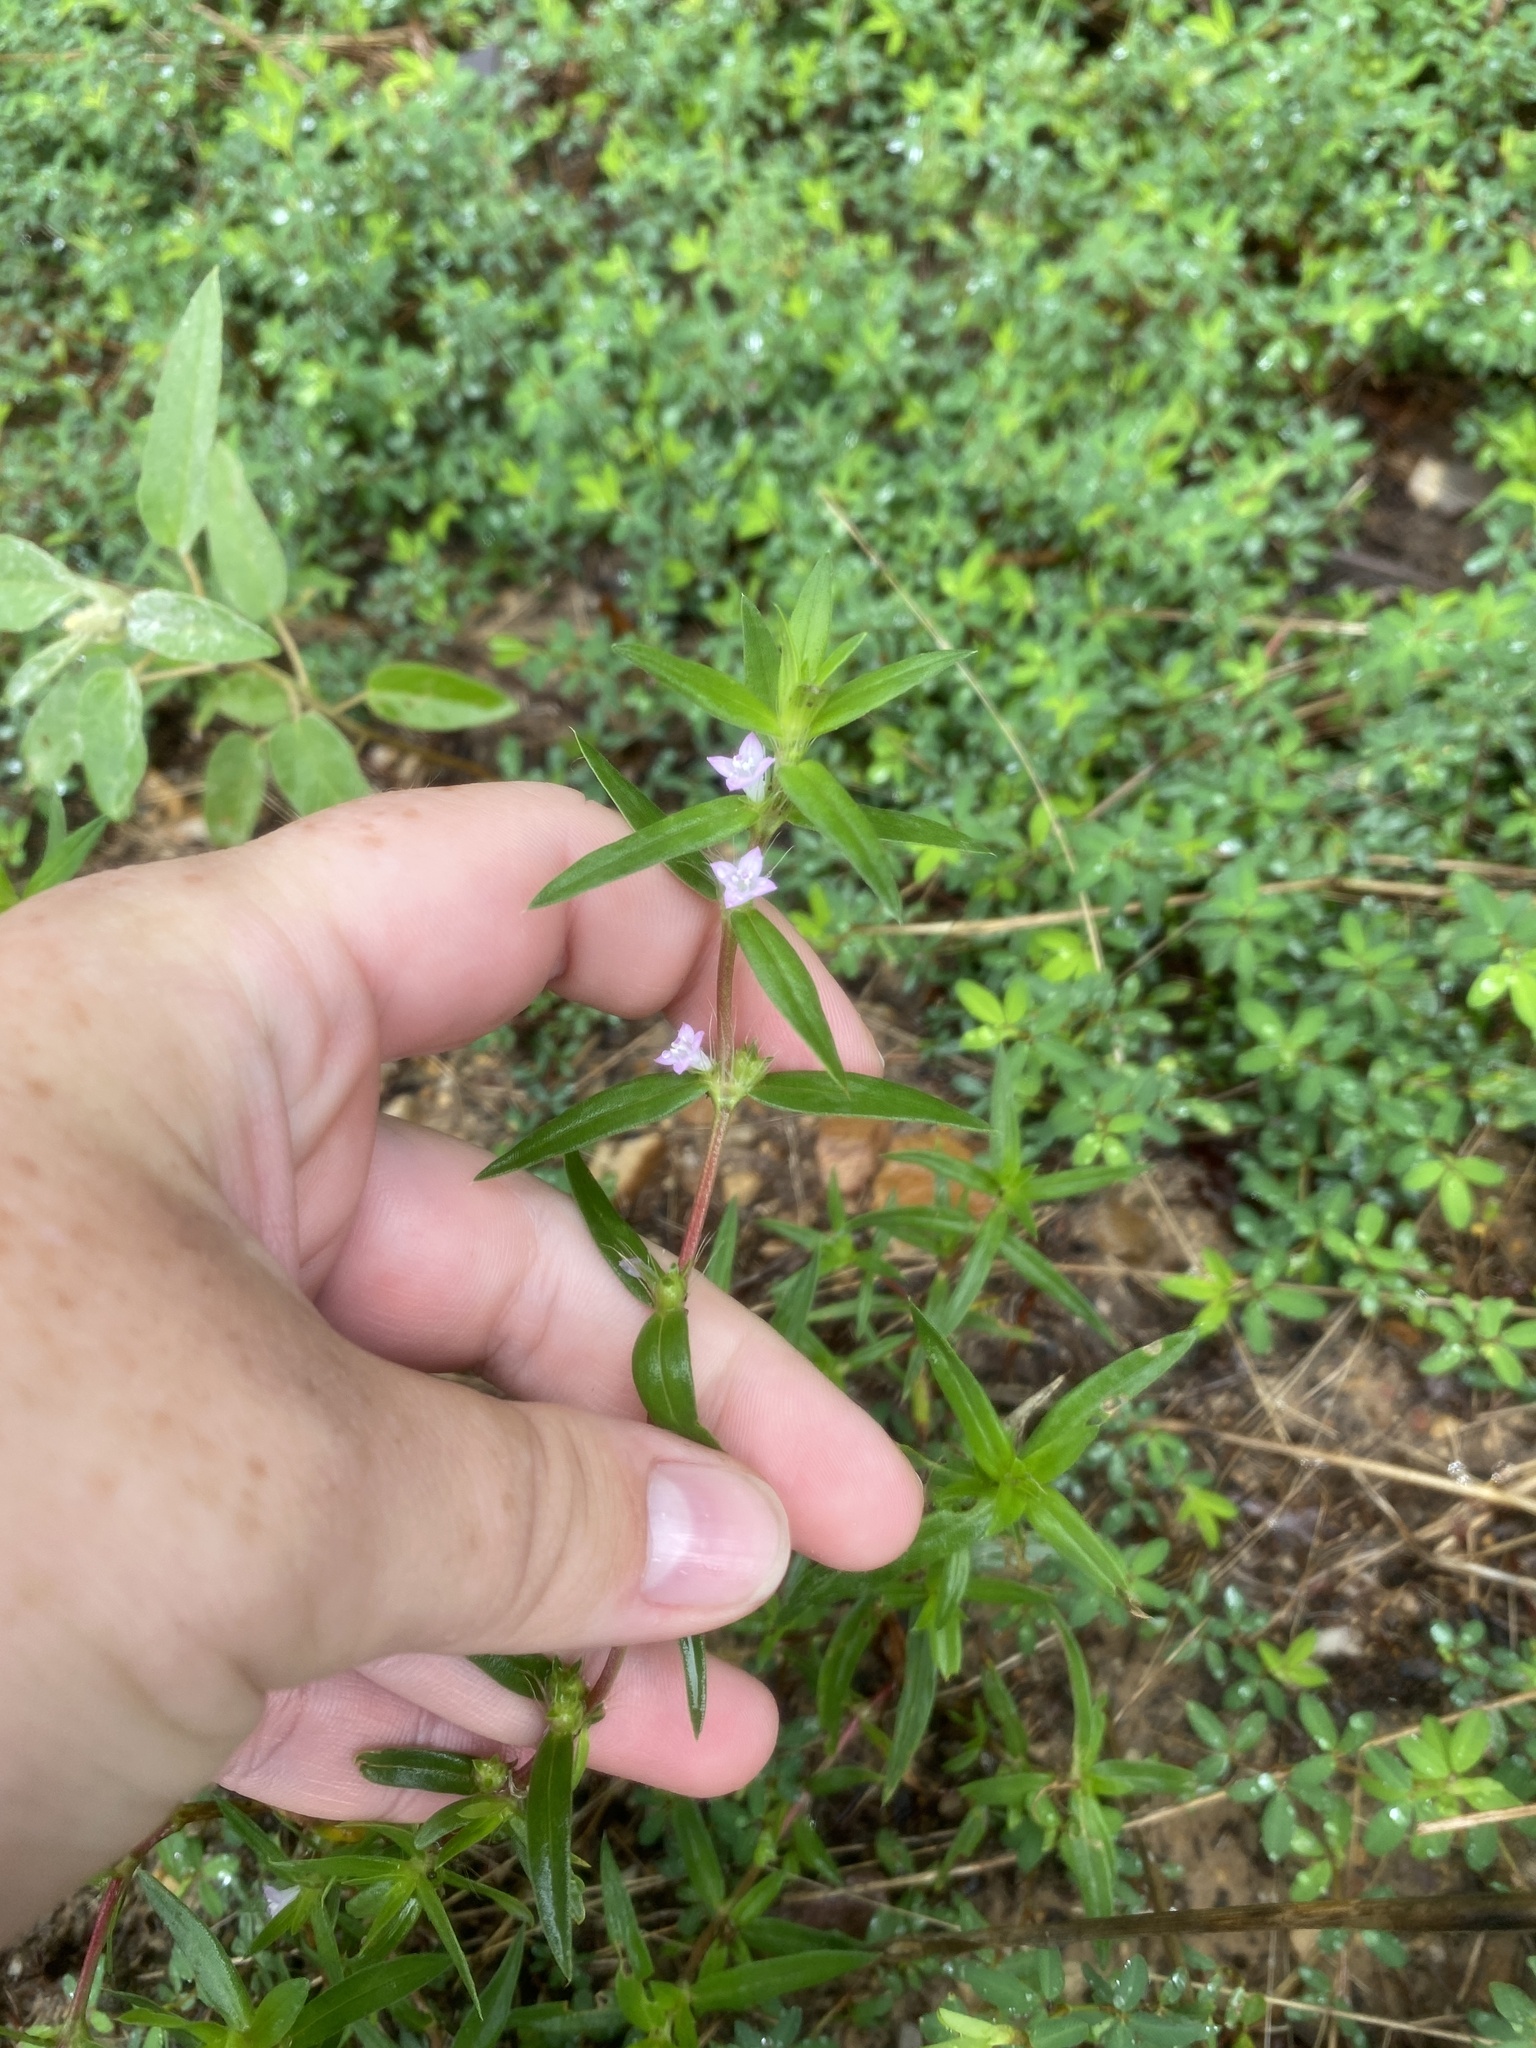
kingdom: Plantae
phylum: Tracheophyta
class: Magnoliopsida
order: Gentianales
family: Rubiaceae
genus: Hexasepalum
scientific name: Hexasepalum teres
